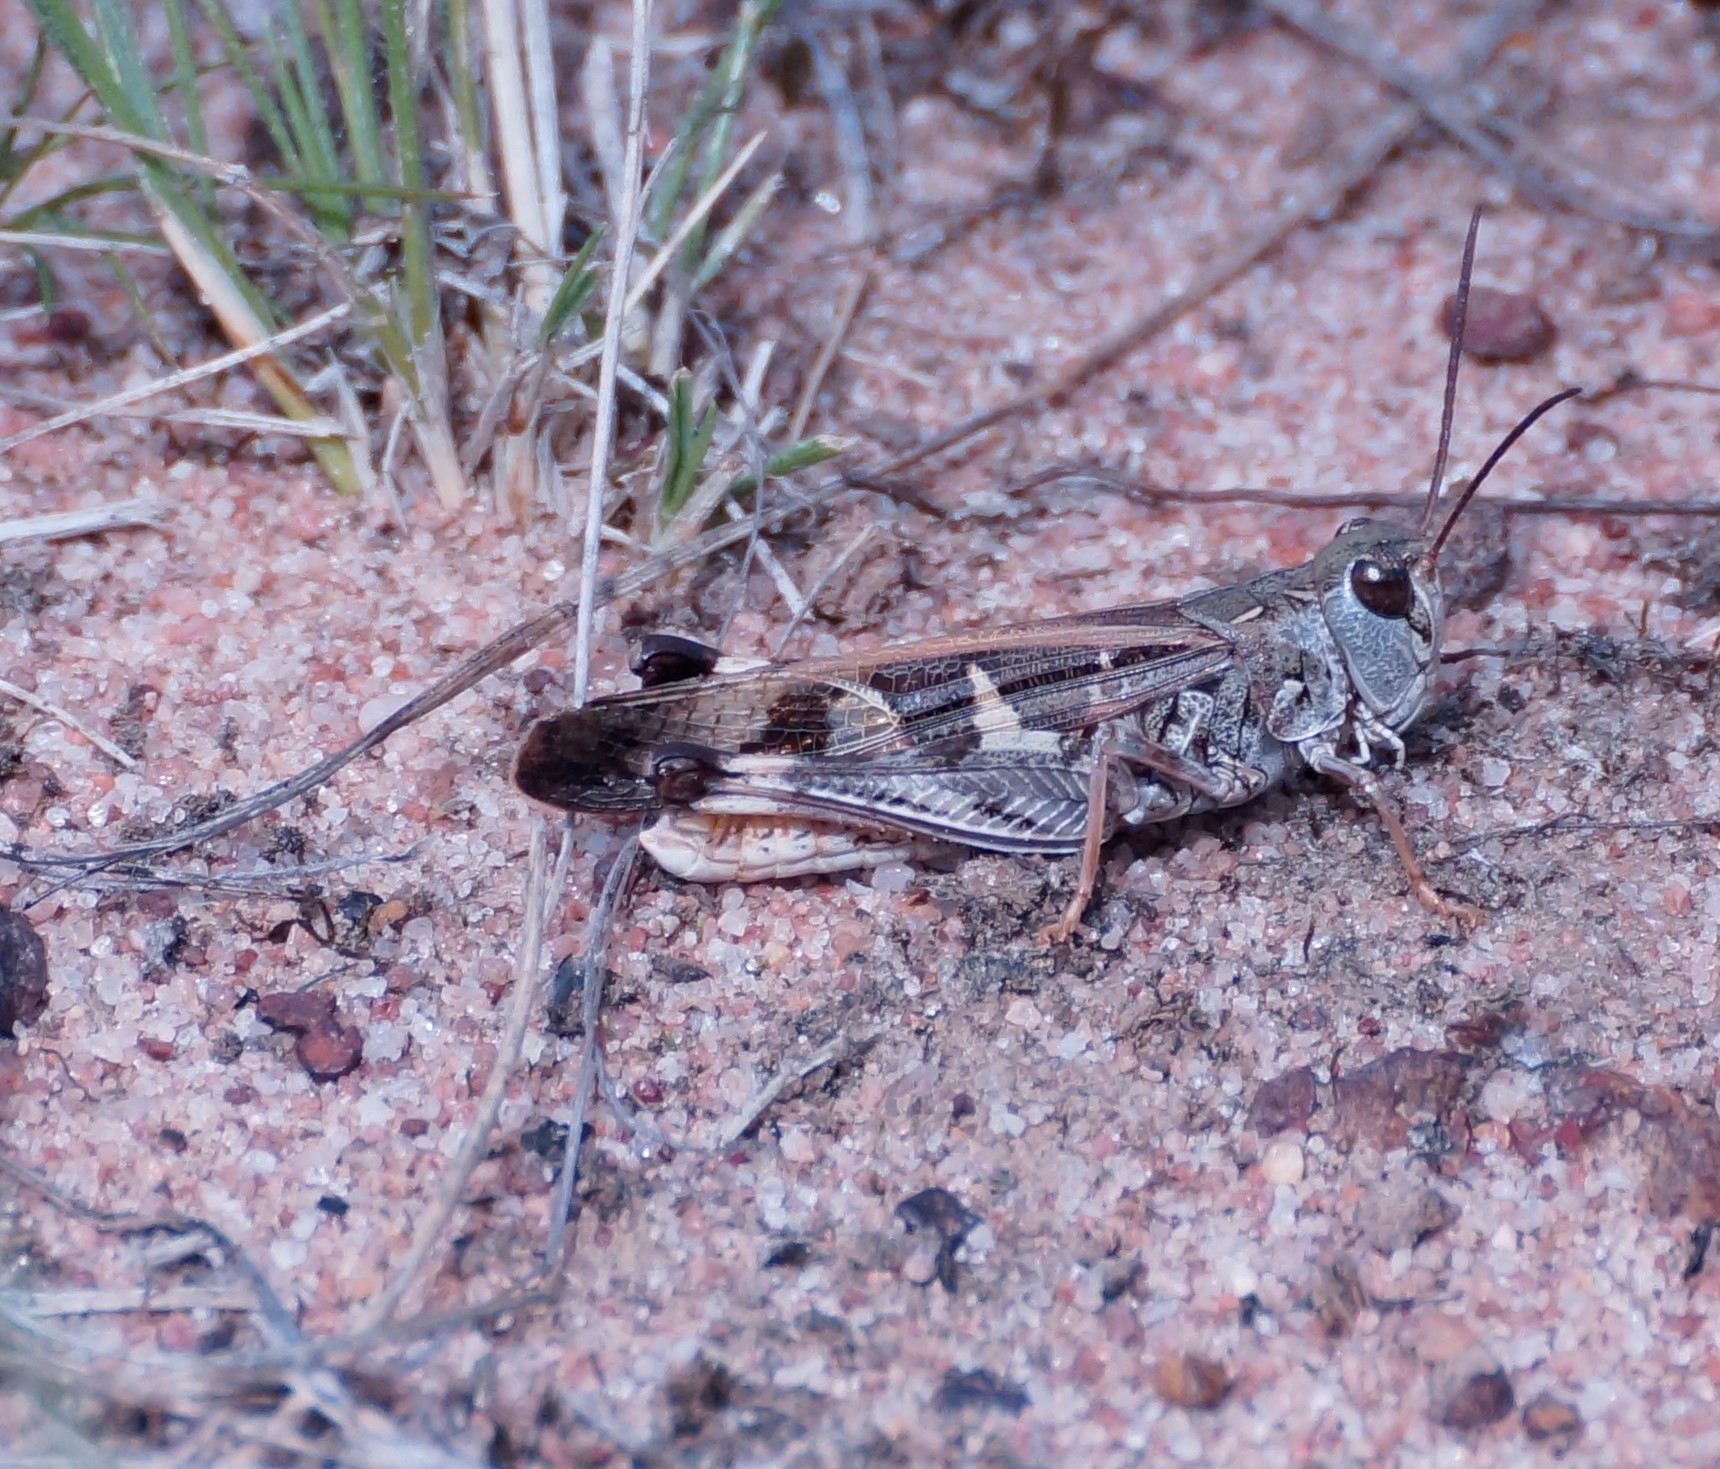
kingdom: Animalia
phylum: Arthropoda
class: Insecta
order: Orthoptera
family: Acrididae
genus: Oedaleus
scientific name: Oedaleus australis
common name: Eastern oedaleus
